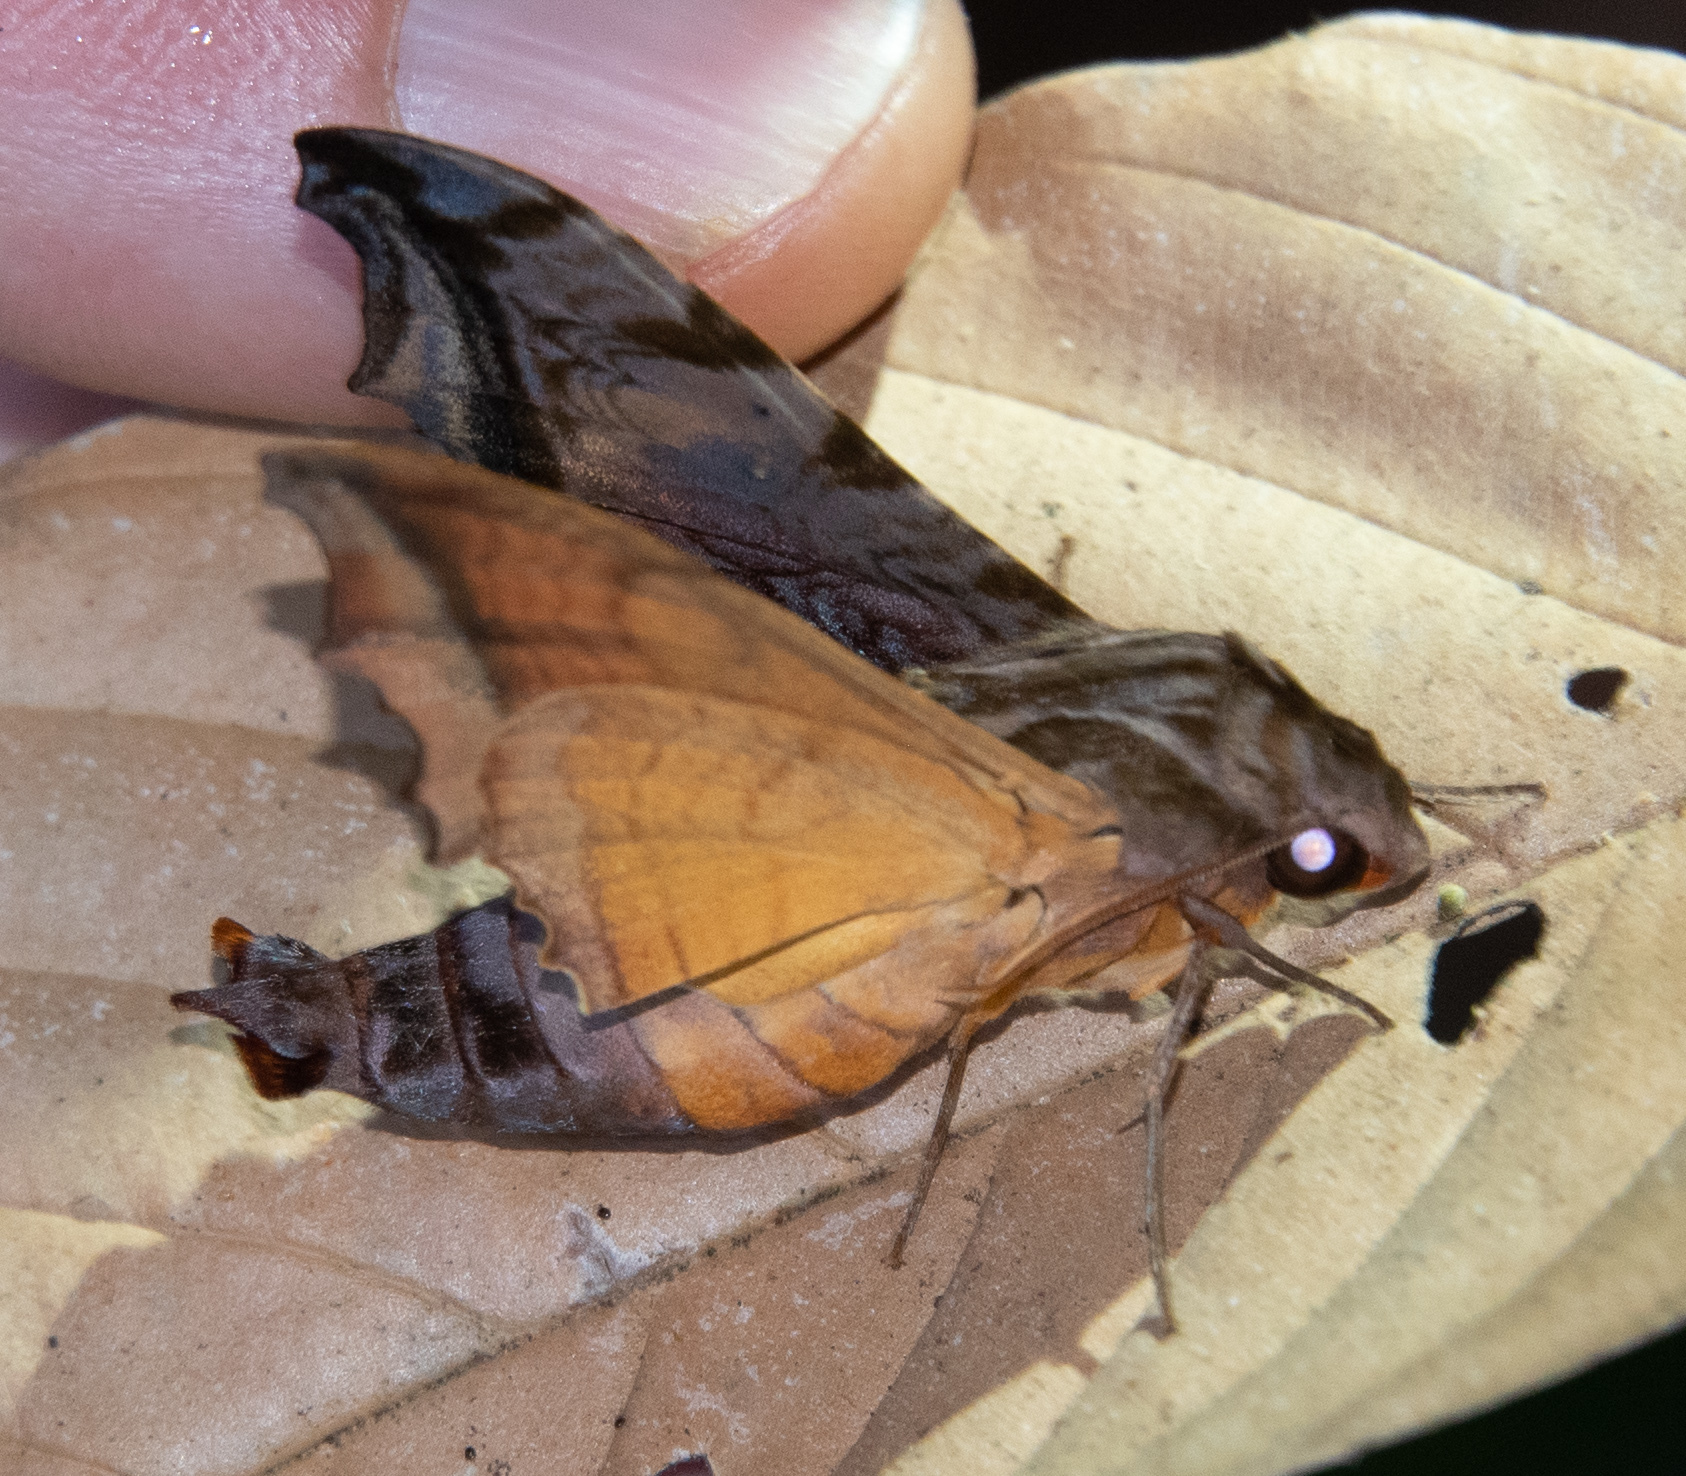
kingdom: Animalia
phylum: Arthropoda
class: Insecta
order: Lepidoptera
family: Sphingidae
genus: Nyceryx
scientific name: Nyceryx stuarti
